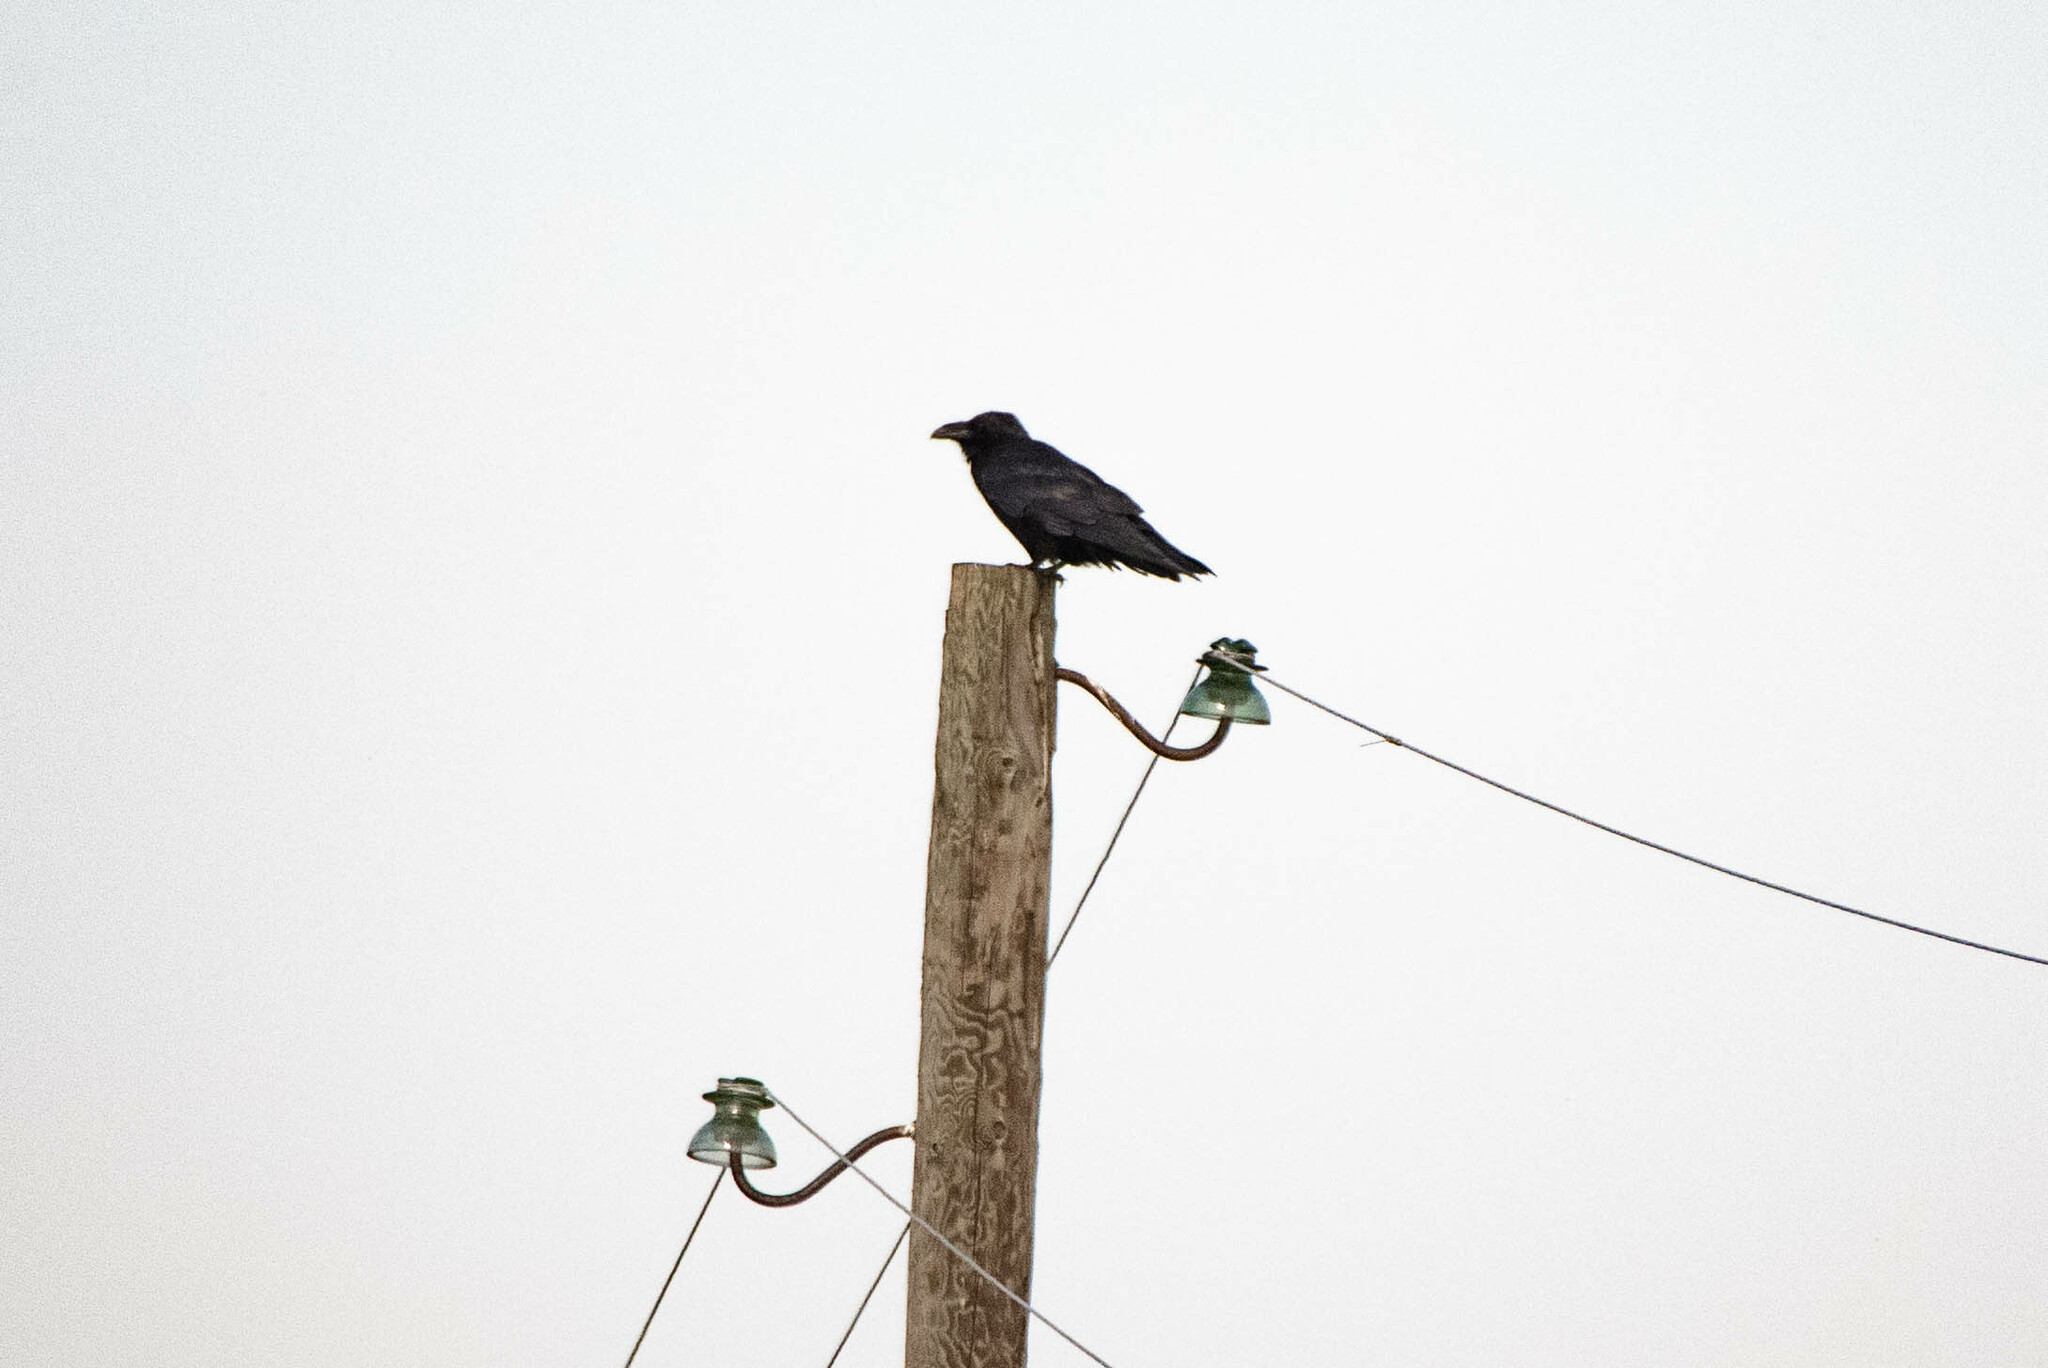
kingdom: Animalia
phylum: Chordata
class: Aves
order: Passeriformes
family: Corvidae
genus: Corvus
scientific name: Corvus corax
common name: Common raven
